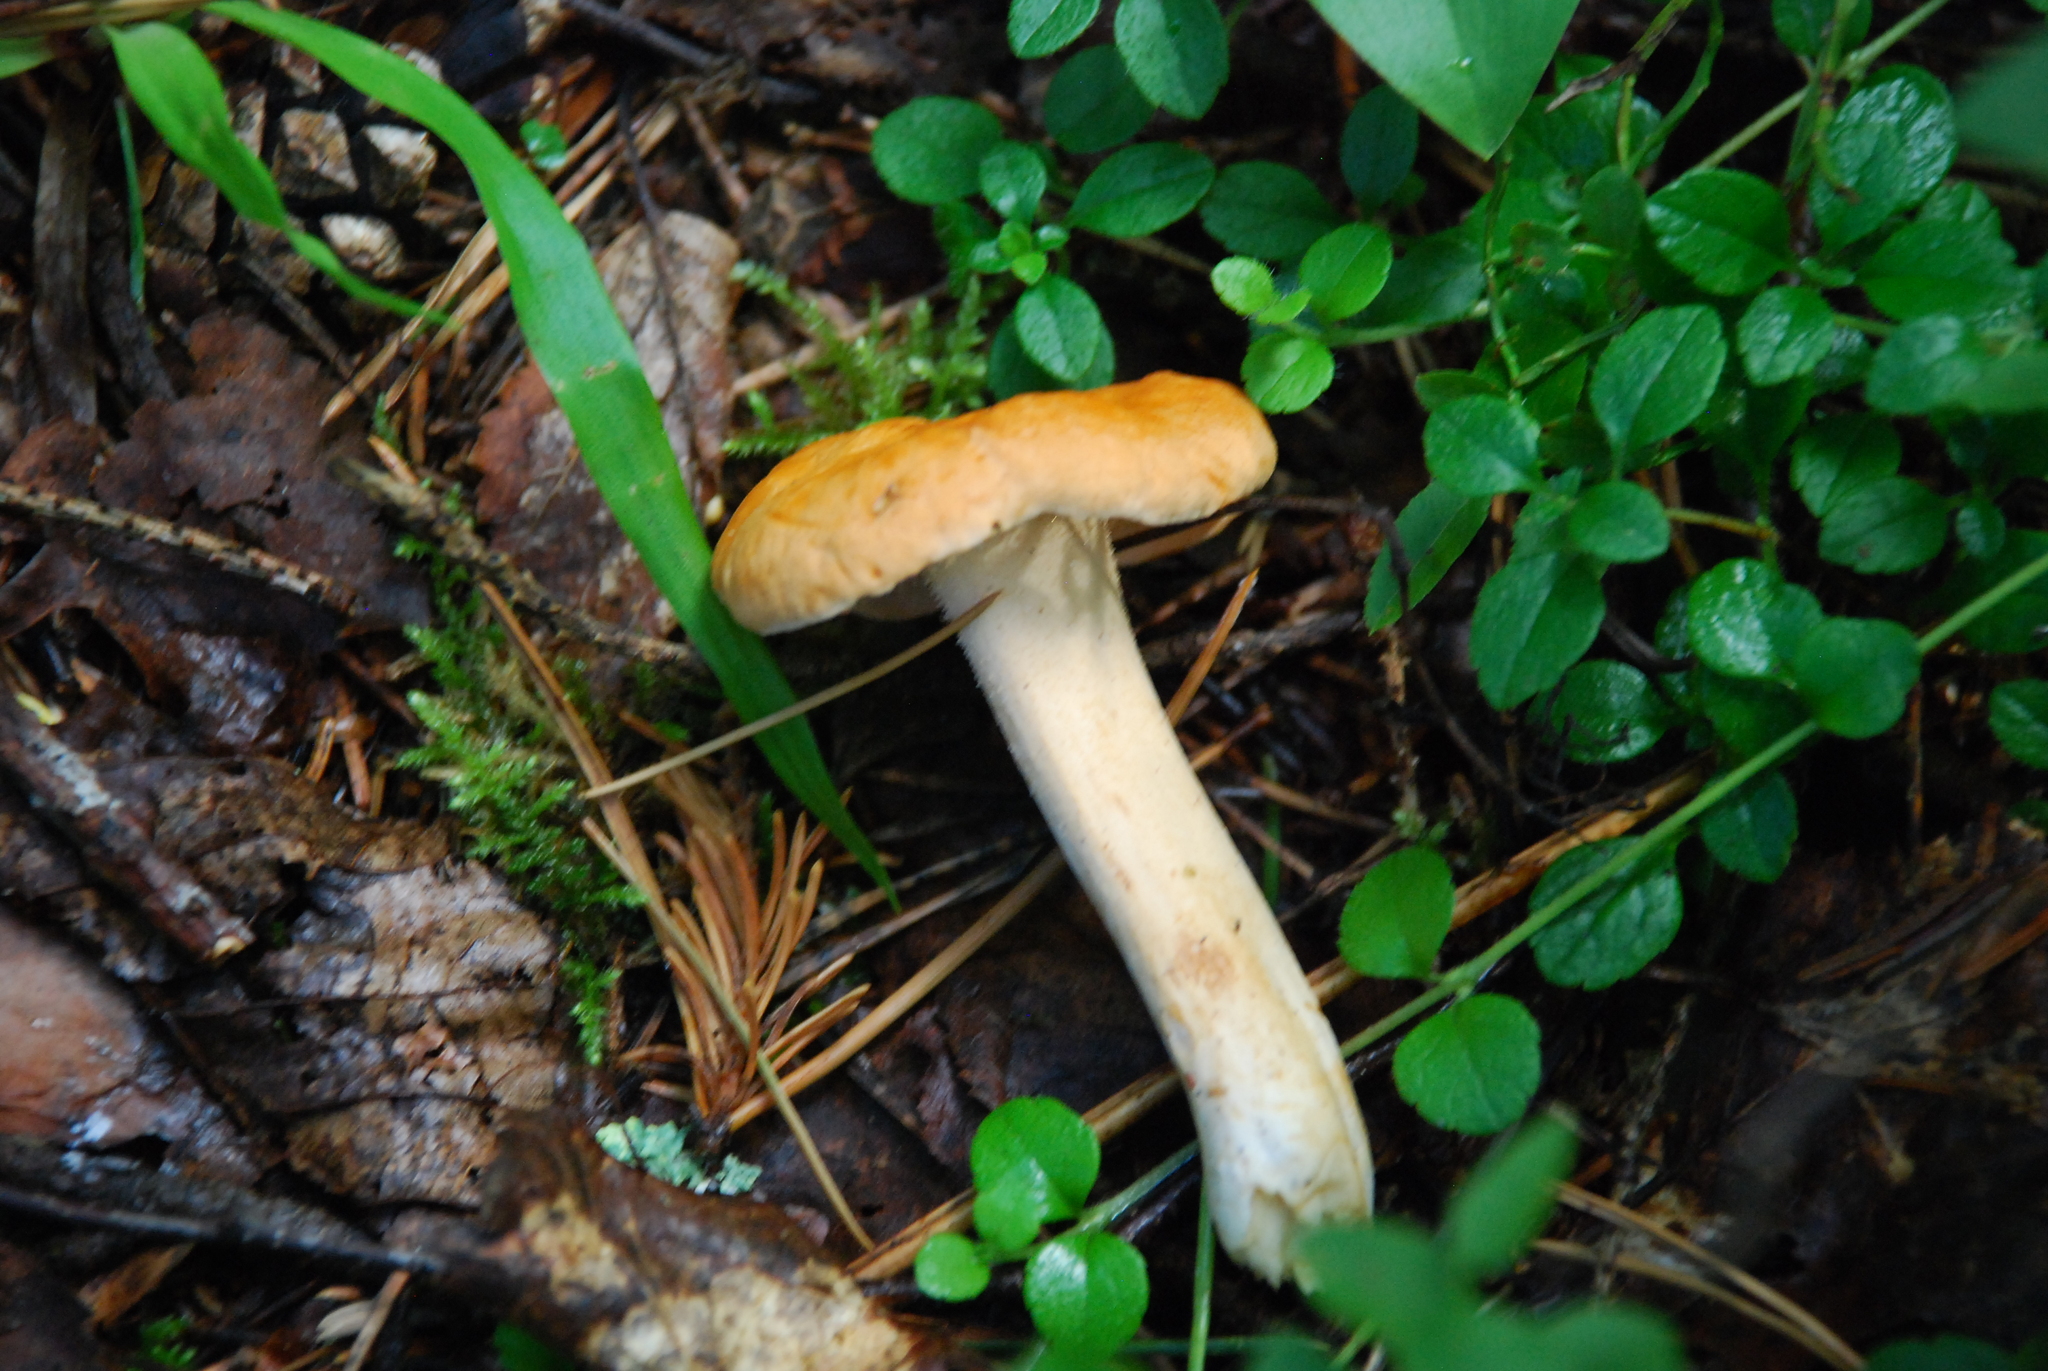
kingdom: Fungi
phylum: Basidiomycota
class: Agaricomycetes
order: Cantharellales
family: Hydnaceae
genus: Hydnum
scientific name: Hydnum repandum
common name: Wood hedgehog
